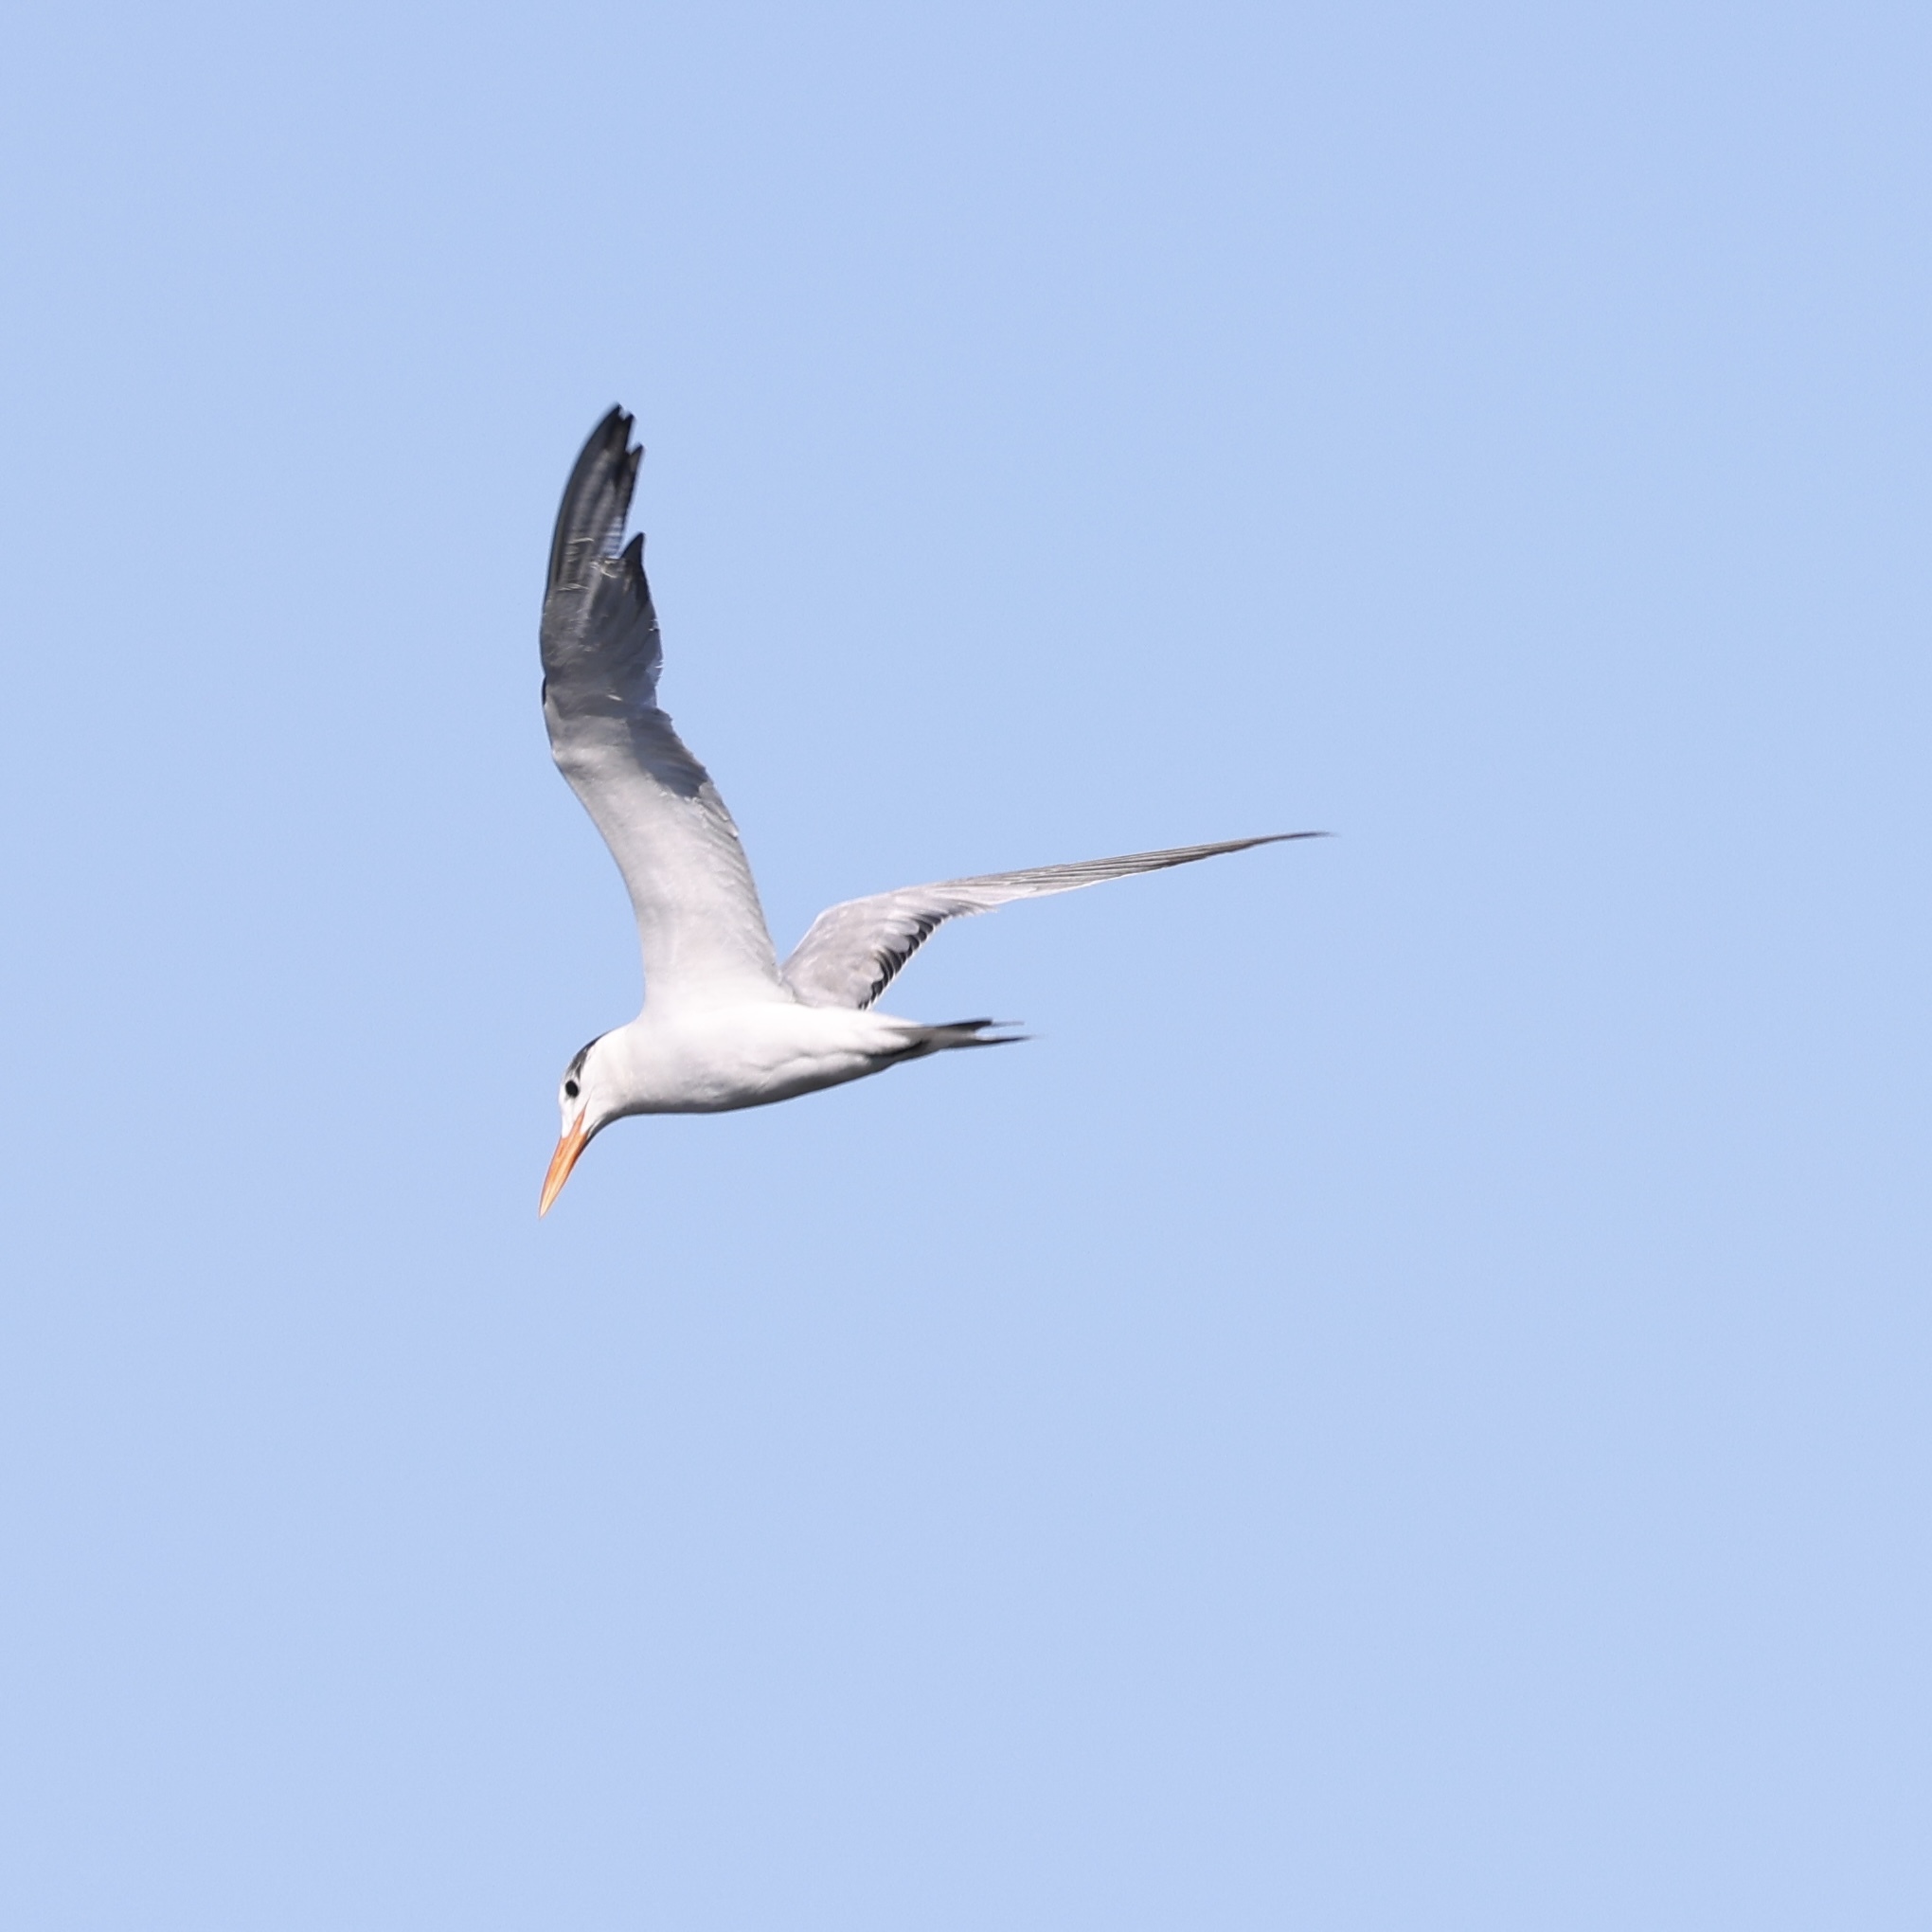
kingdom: Animalia
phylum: Chordata
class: Aves
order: Charadriiformes
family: Laridae
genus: Thalasseus
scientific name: Thalasseus maximus
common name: Royal tern
